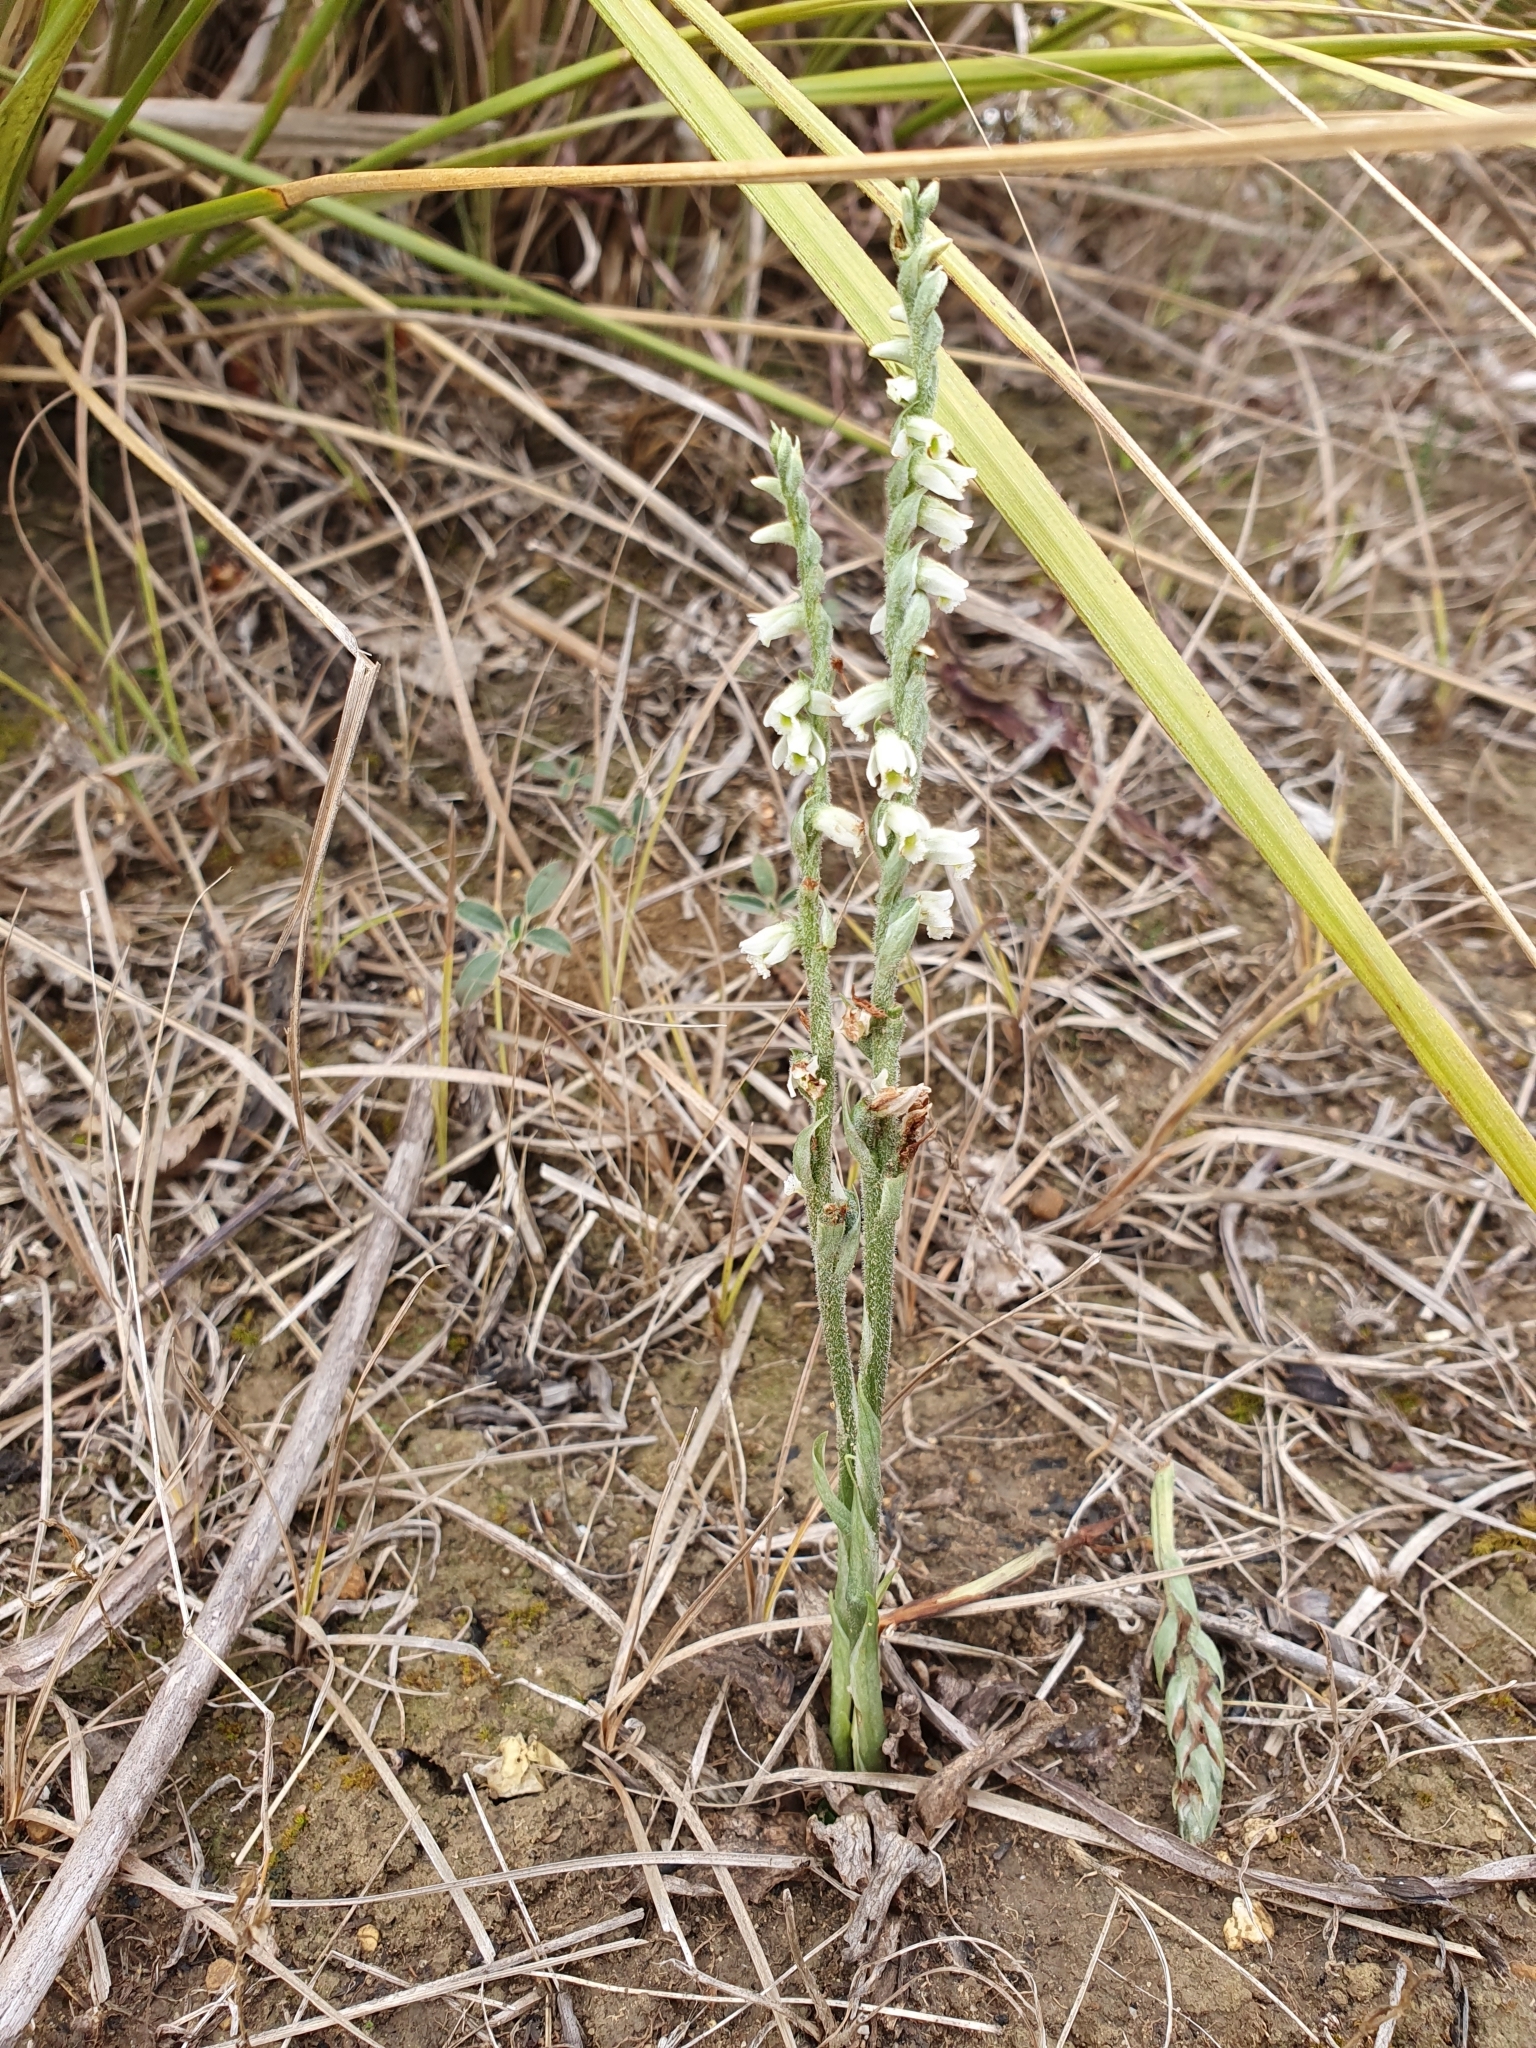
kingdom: Plantae
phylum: Tracheophyta
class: Liliopsida
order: Asparagales
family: Orchidaceae
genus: Spiranthes
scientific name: Spiranthes spiralis
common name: Autumn lady's-tresses
